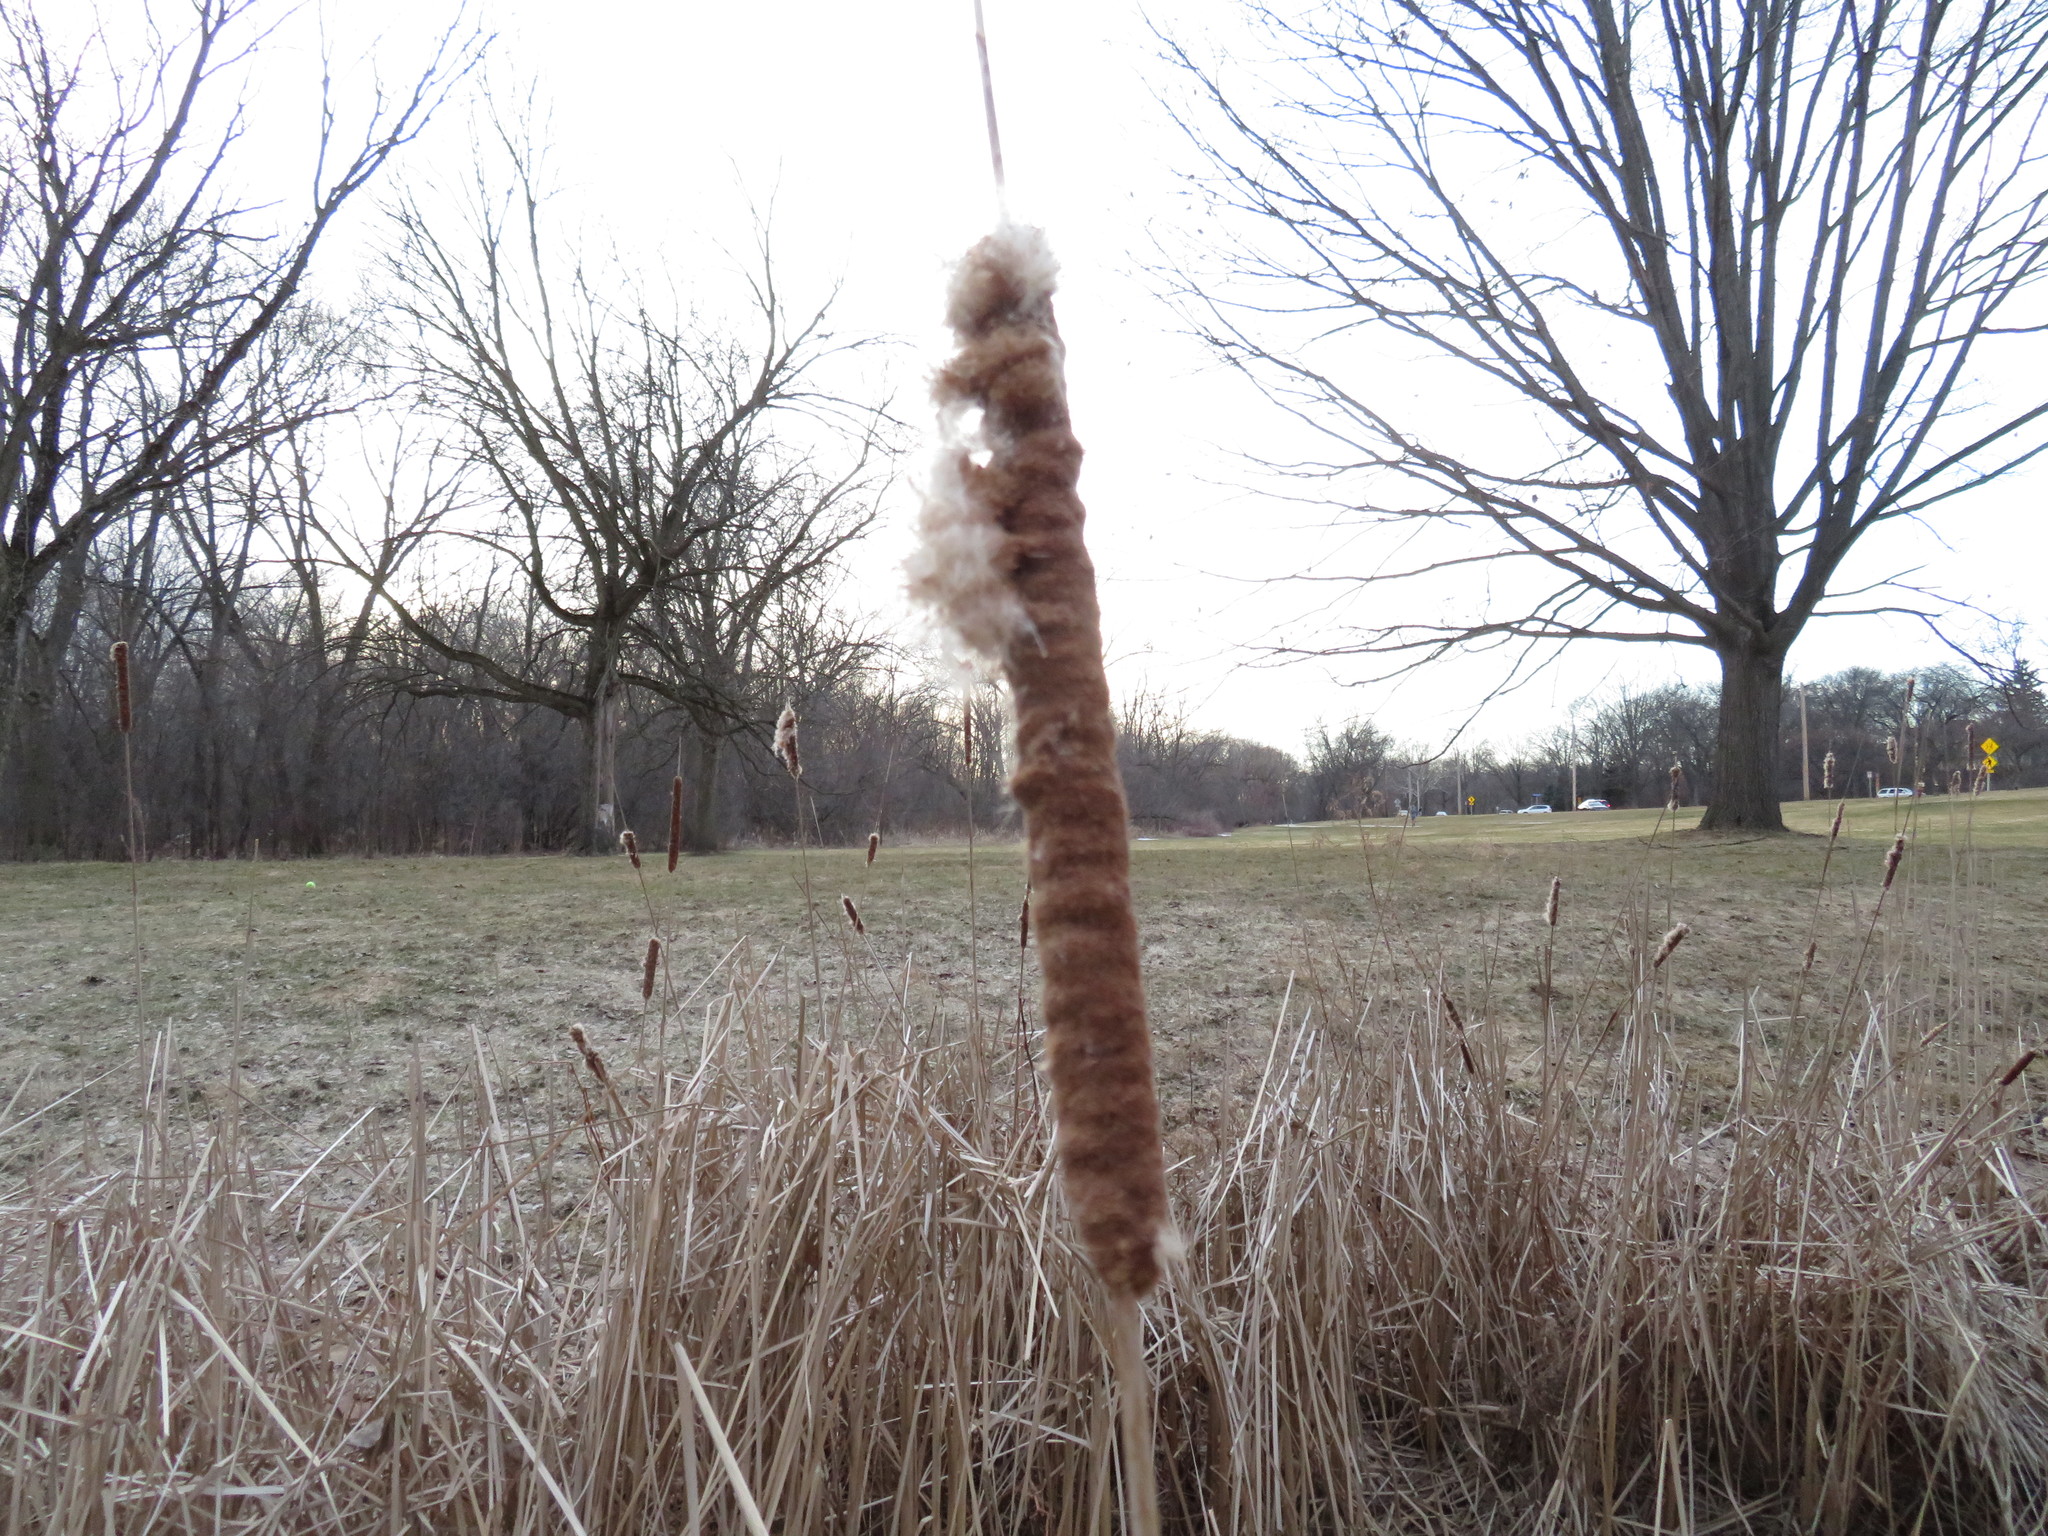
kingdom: Plantae
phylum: Tracheophyta
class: Liliopsida
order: Poales
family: Typhaceae
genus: Typha
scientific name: Typha angustifolia
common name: Lesser bulrush
